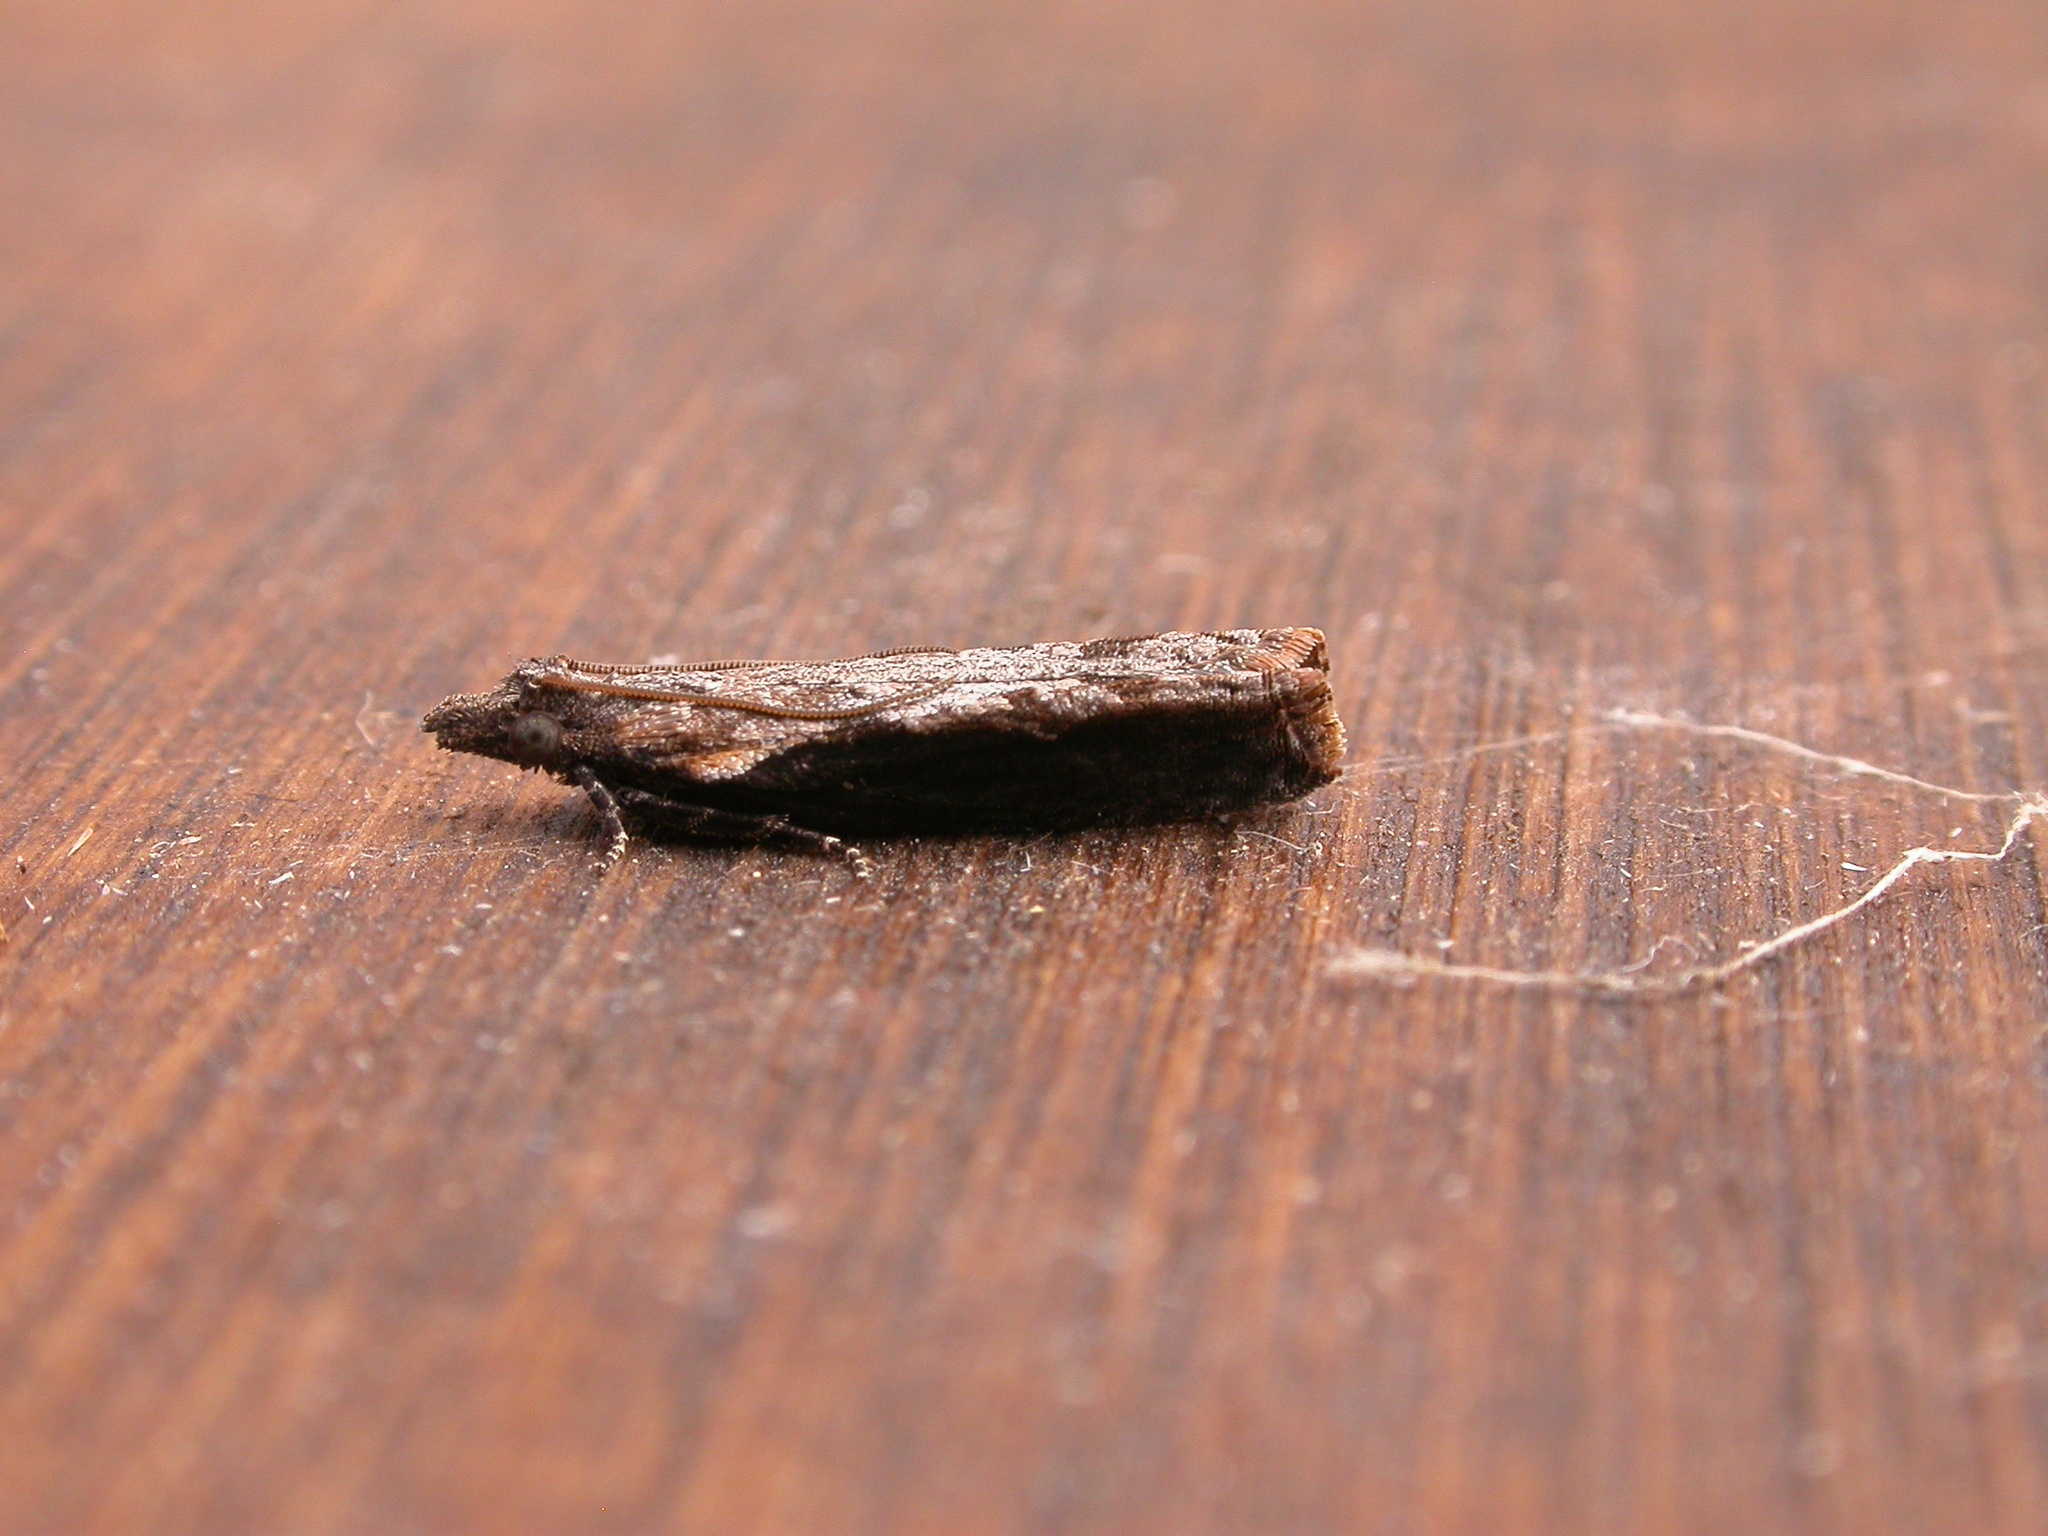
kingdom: Animalia
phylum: Arthropoda
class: Insecta
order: Lepidoptera
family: Tortricidae
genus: Strepsicrates
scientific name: Strepsicrates infensa
